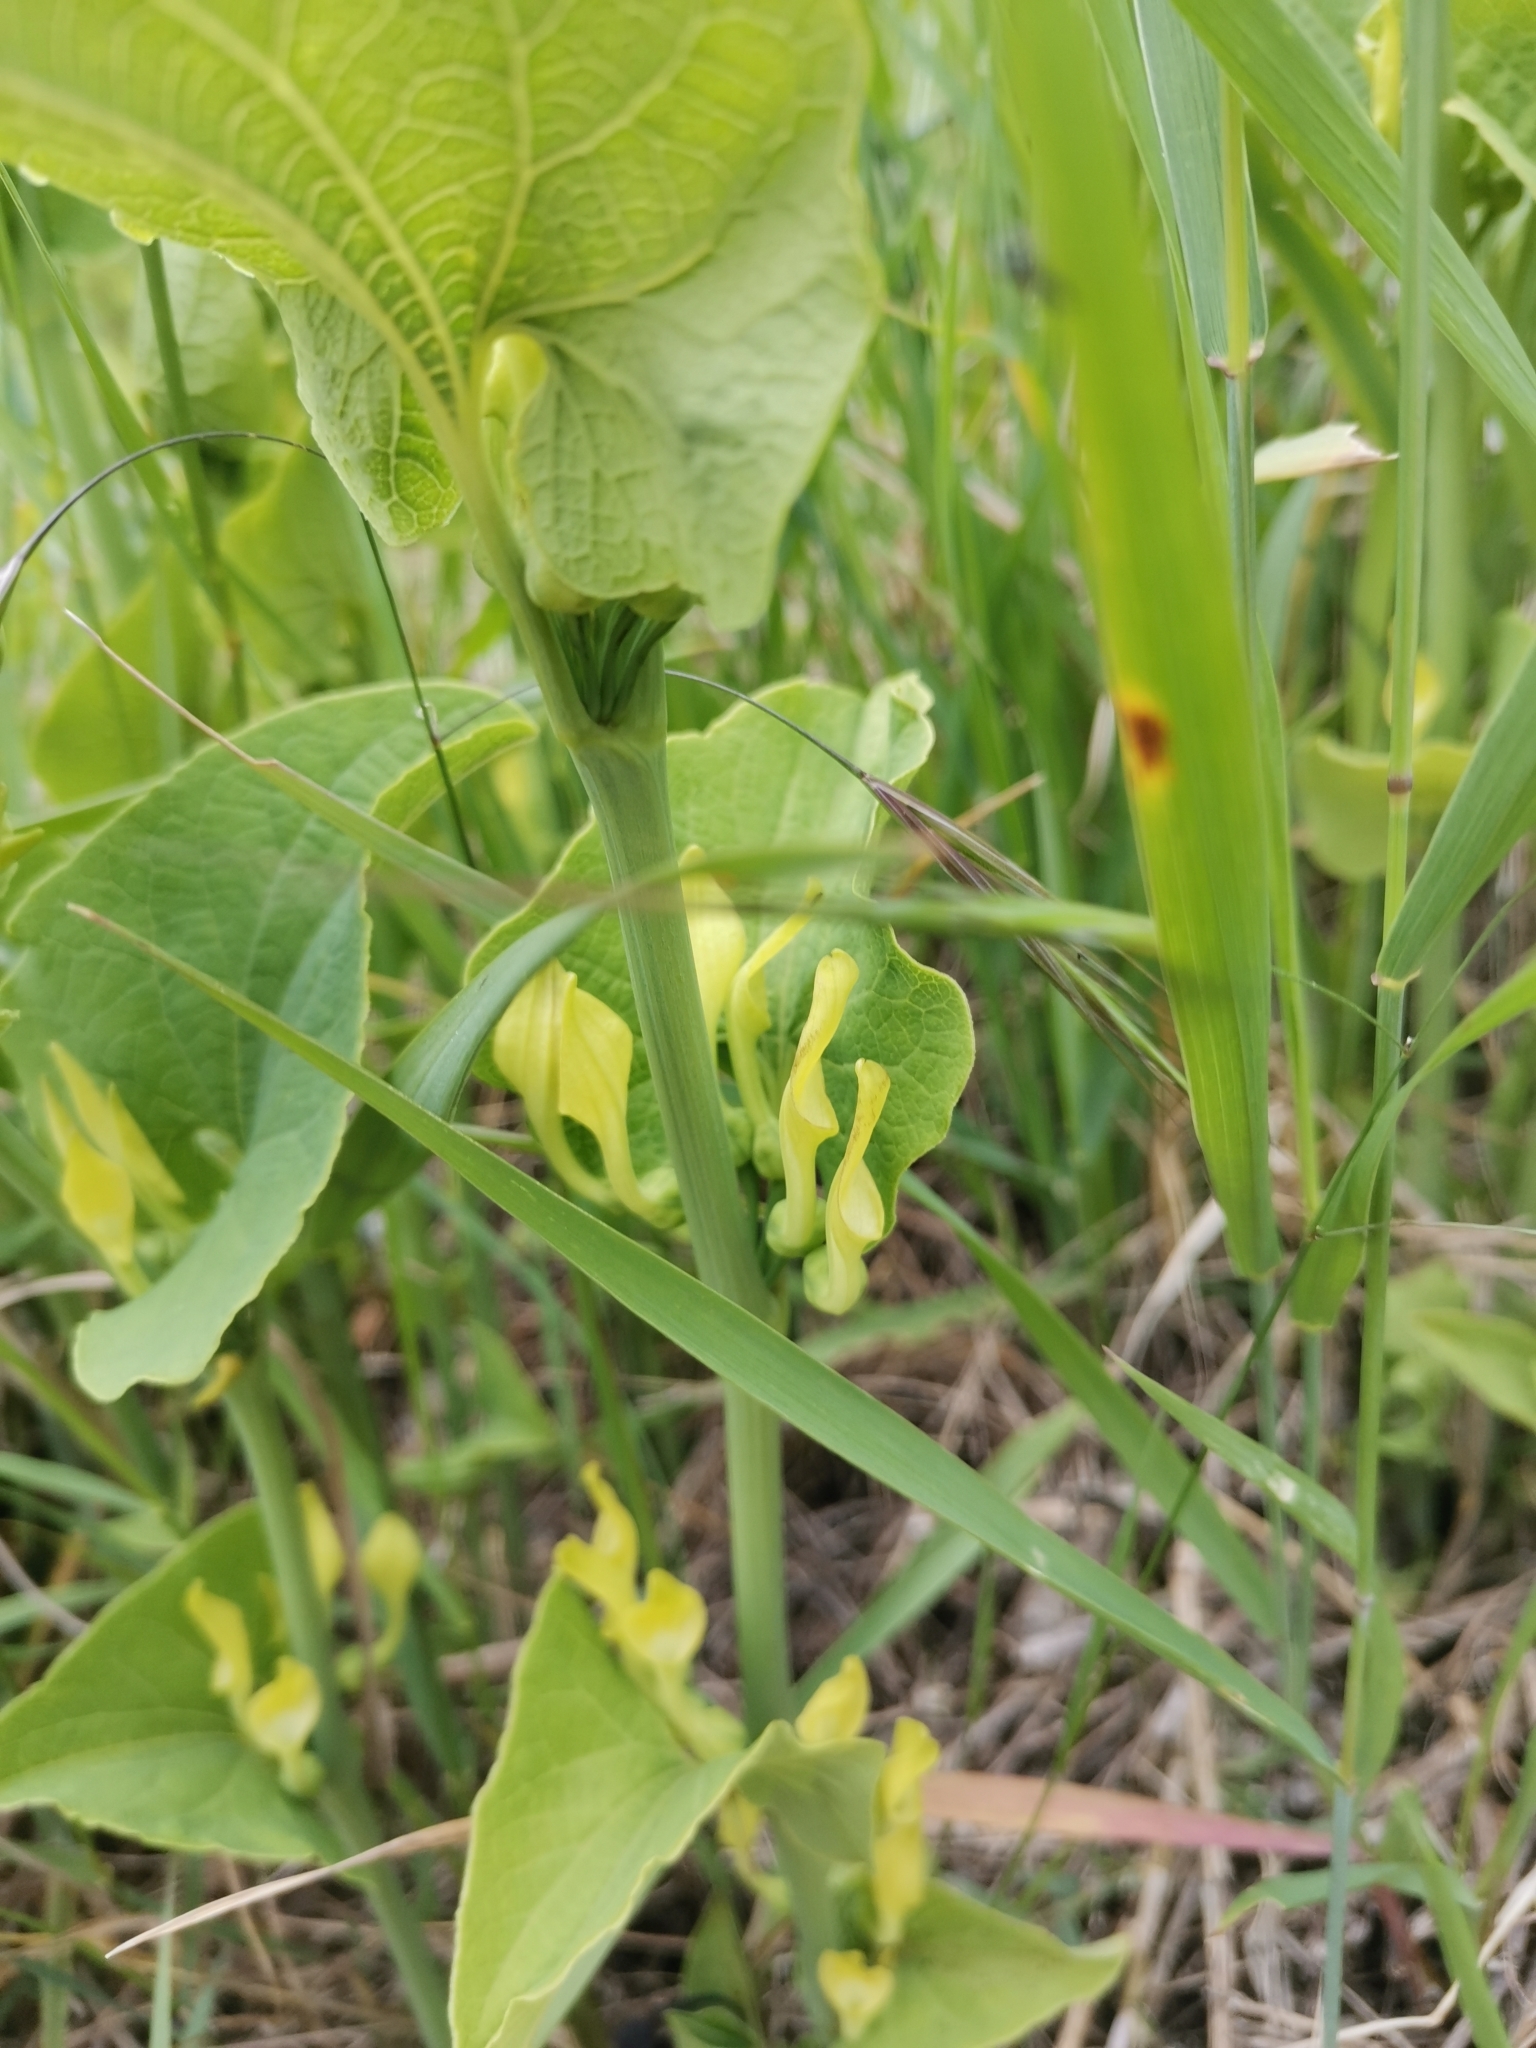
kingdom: Plantae
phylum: Tracheophyta
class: Magnoliopsida
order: Piperales
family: Aristolochiaceae
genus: Aristolochia
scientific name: Aristolochia clematitis
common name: Birthwort
